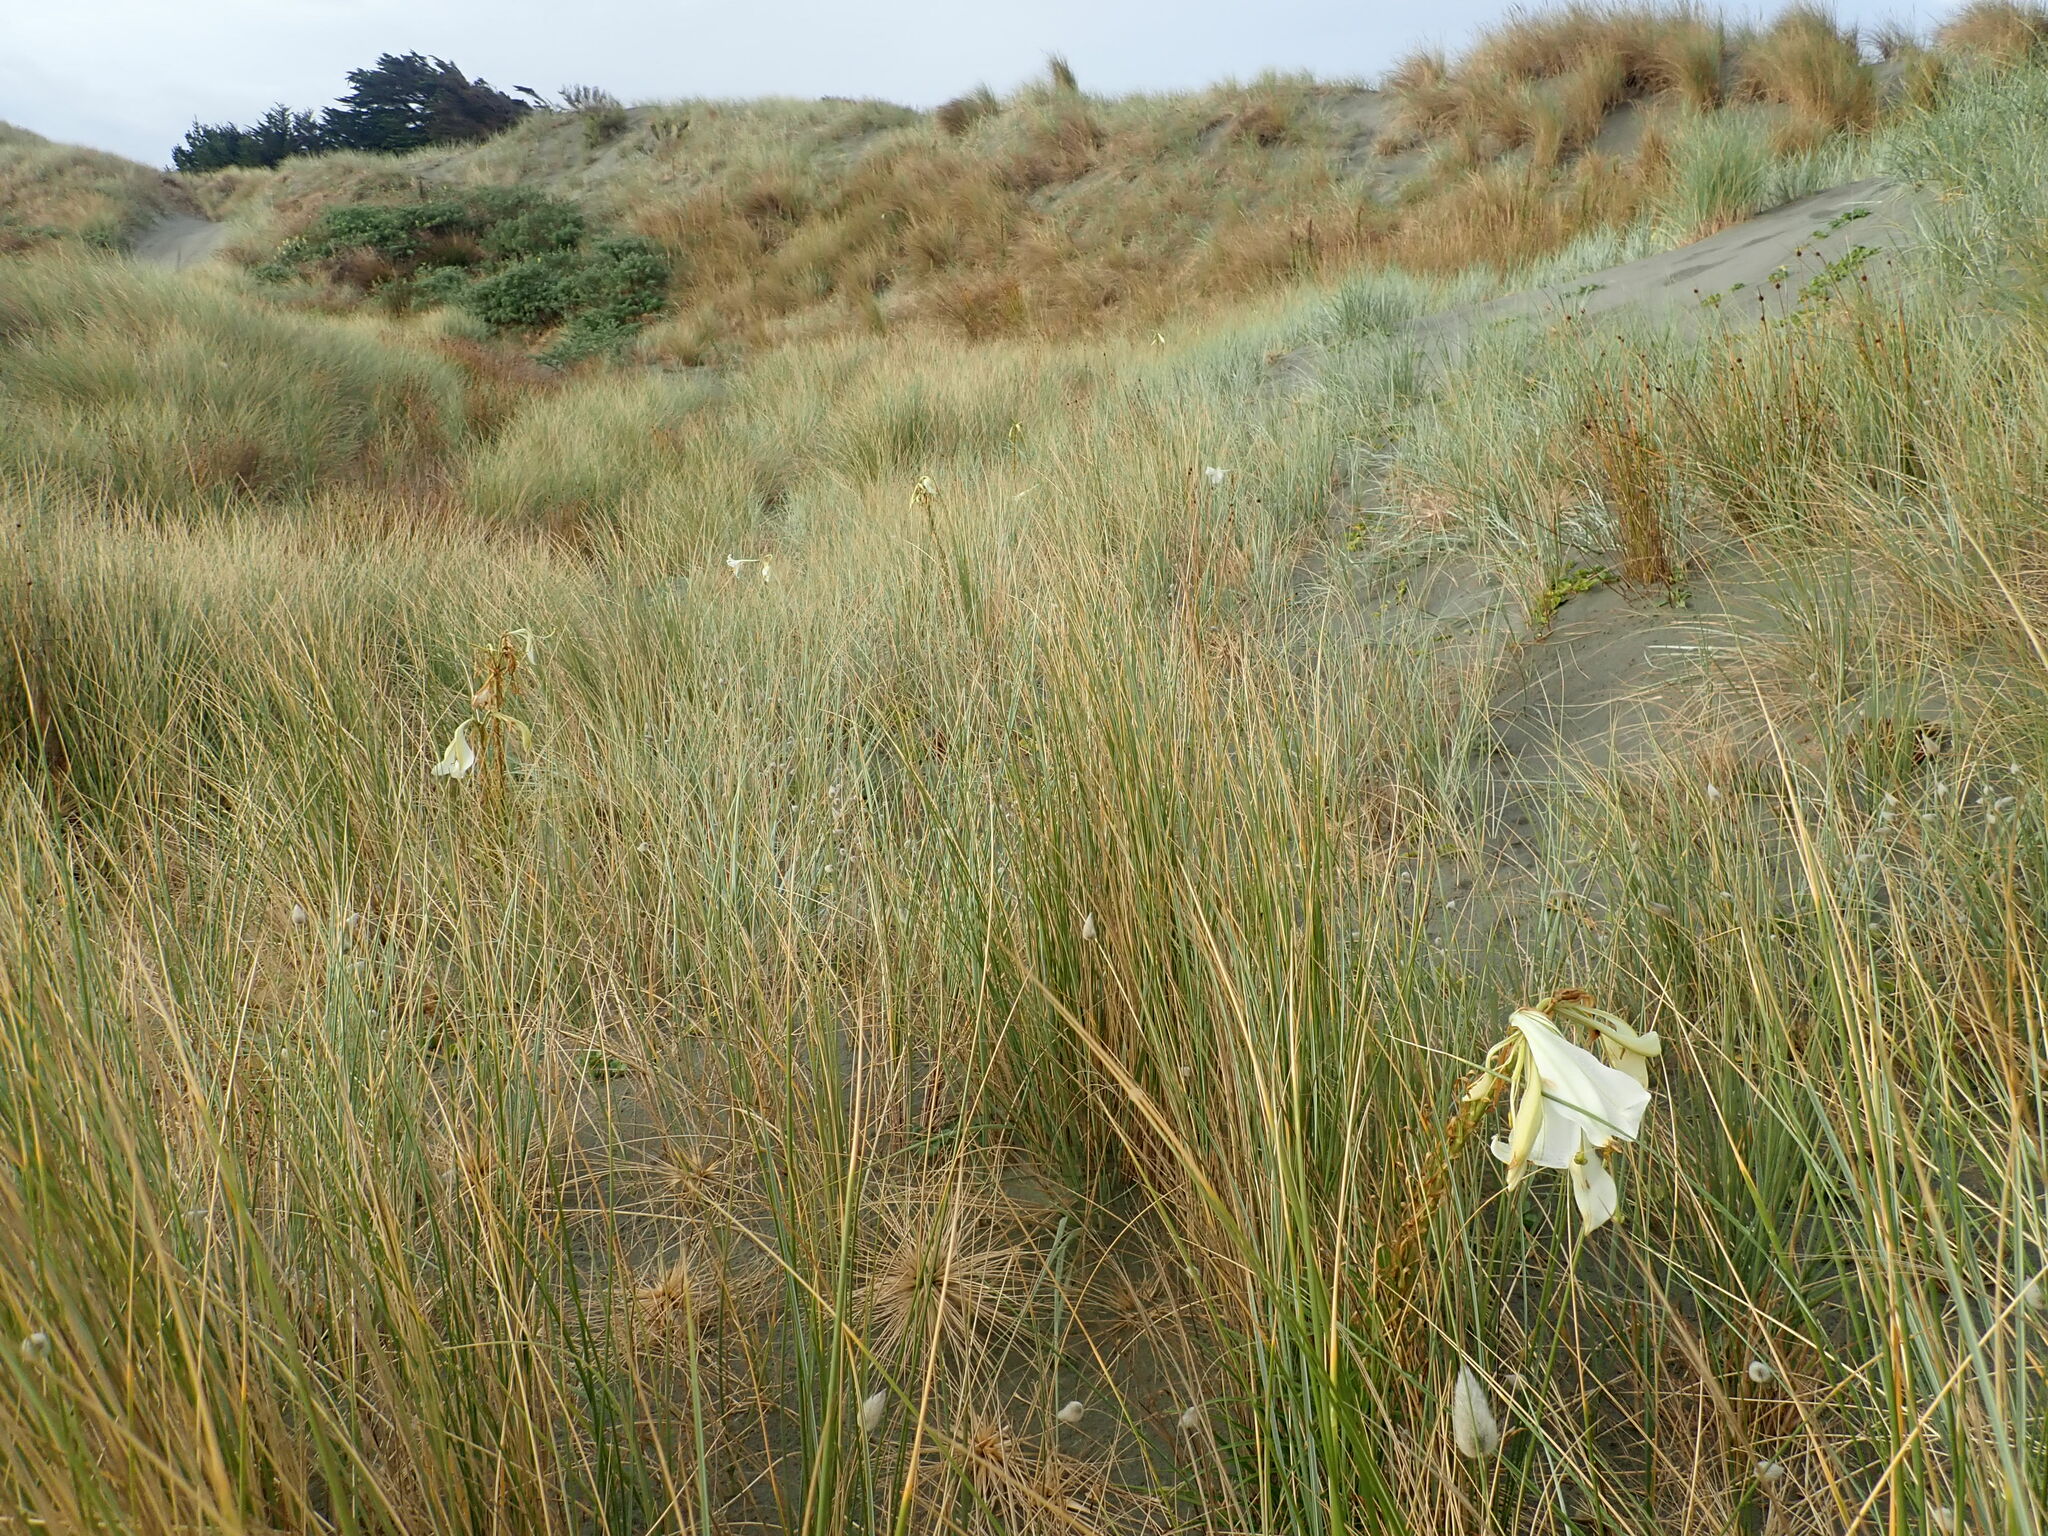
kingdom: Plantae
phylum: Tracheophyta
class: Liliopsida
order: Liliales
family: Liliaceae
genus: Lilium
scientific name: Lilium formosanum
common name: Formosa lily
